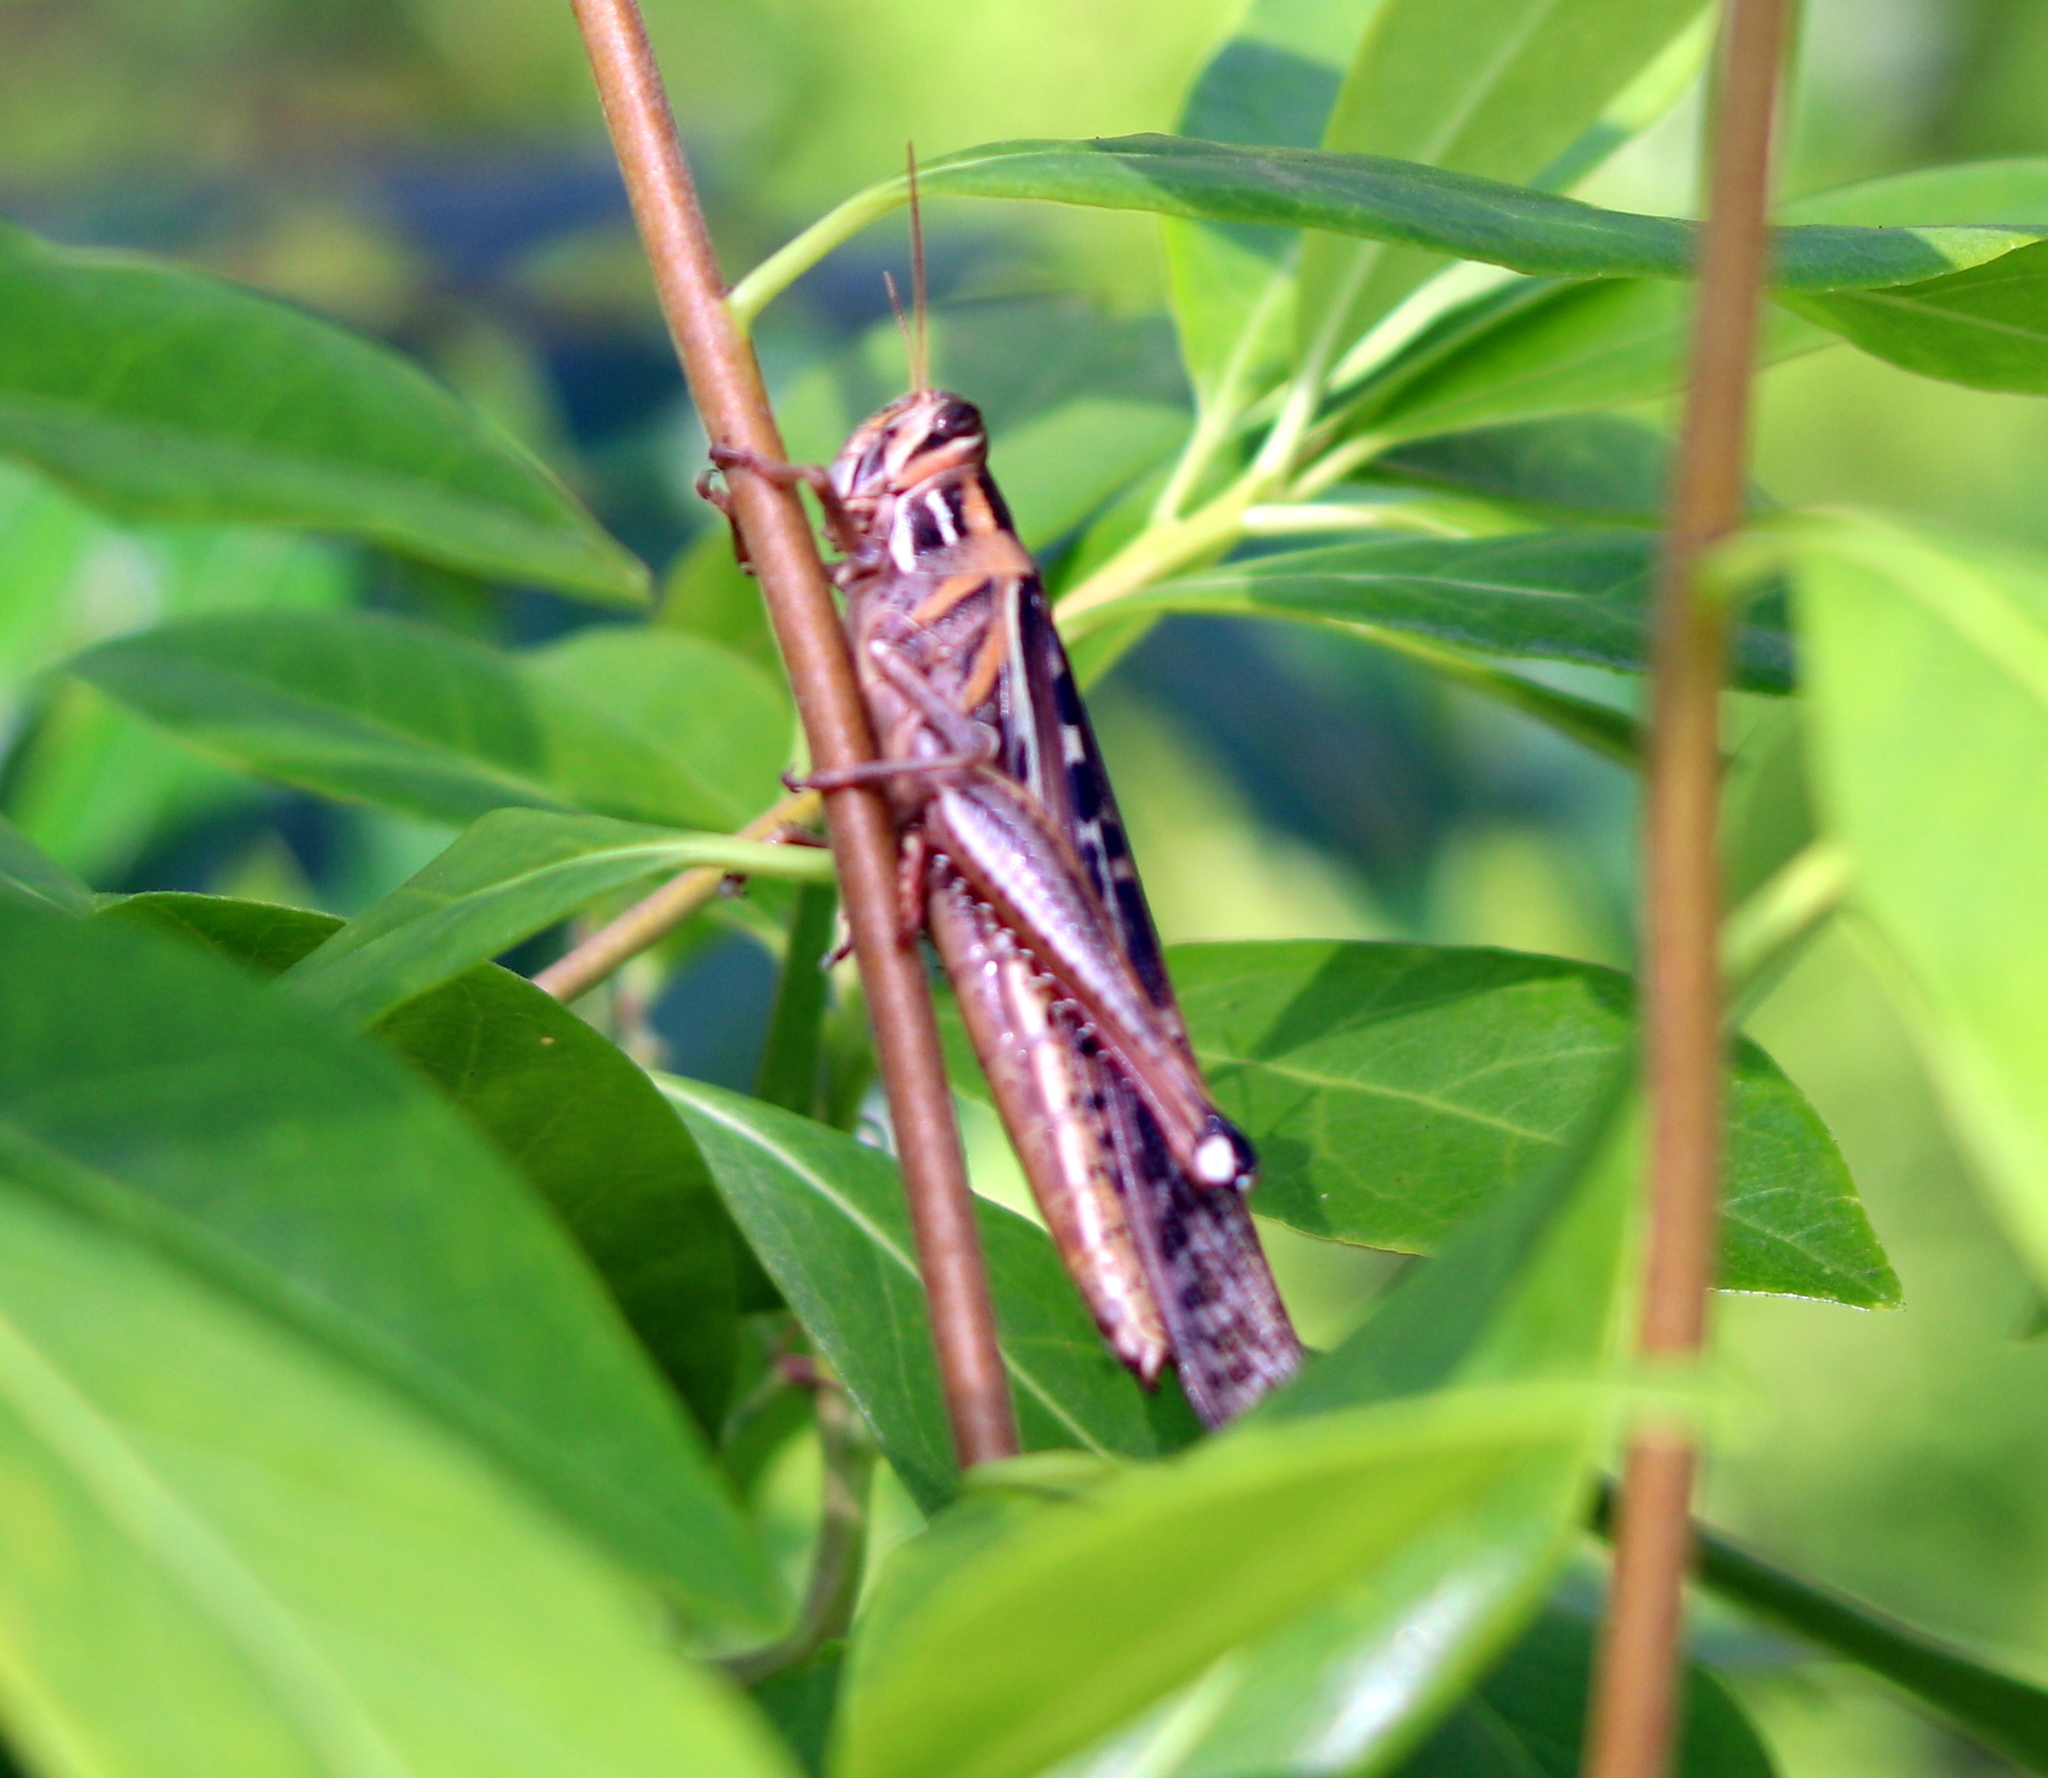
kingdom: Animalia
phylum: Arthropoda
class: Insecta
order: Orthoptera
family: Acrididae
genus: Schistocerca
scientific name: Schistocerca americana
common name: American bird locust
